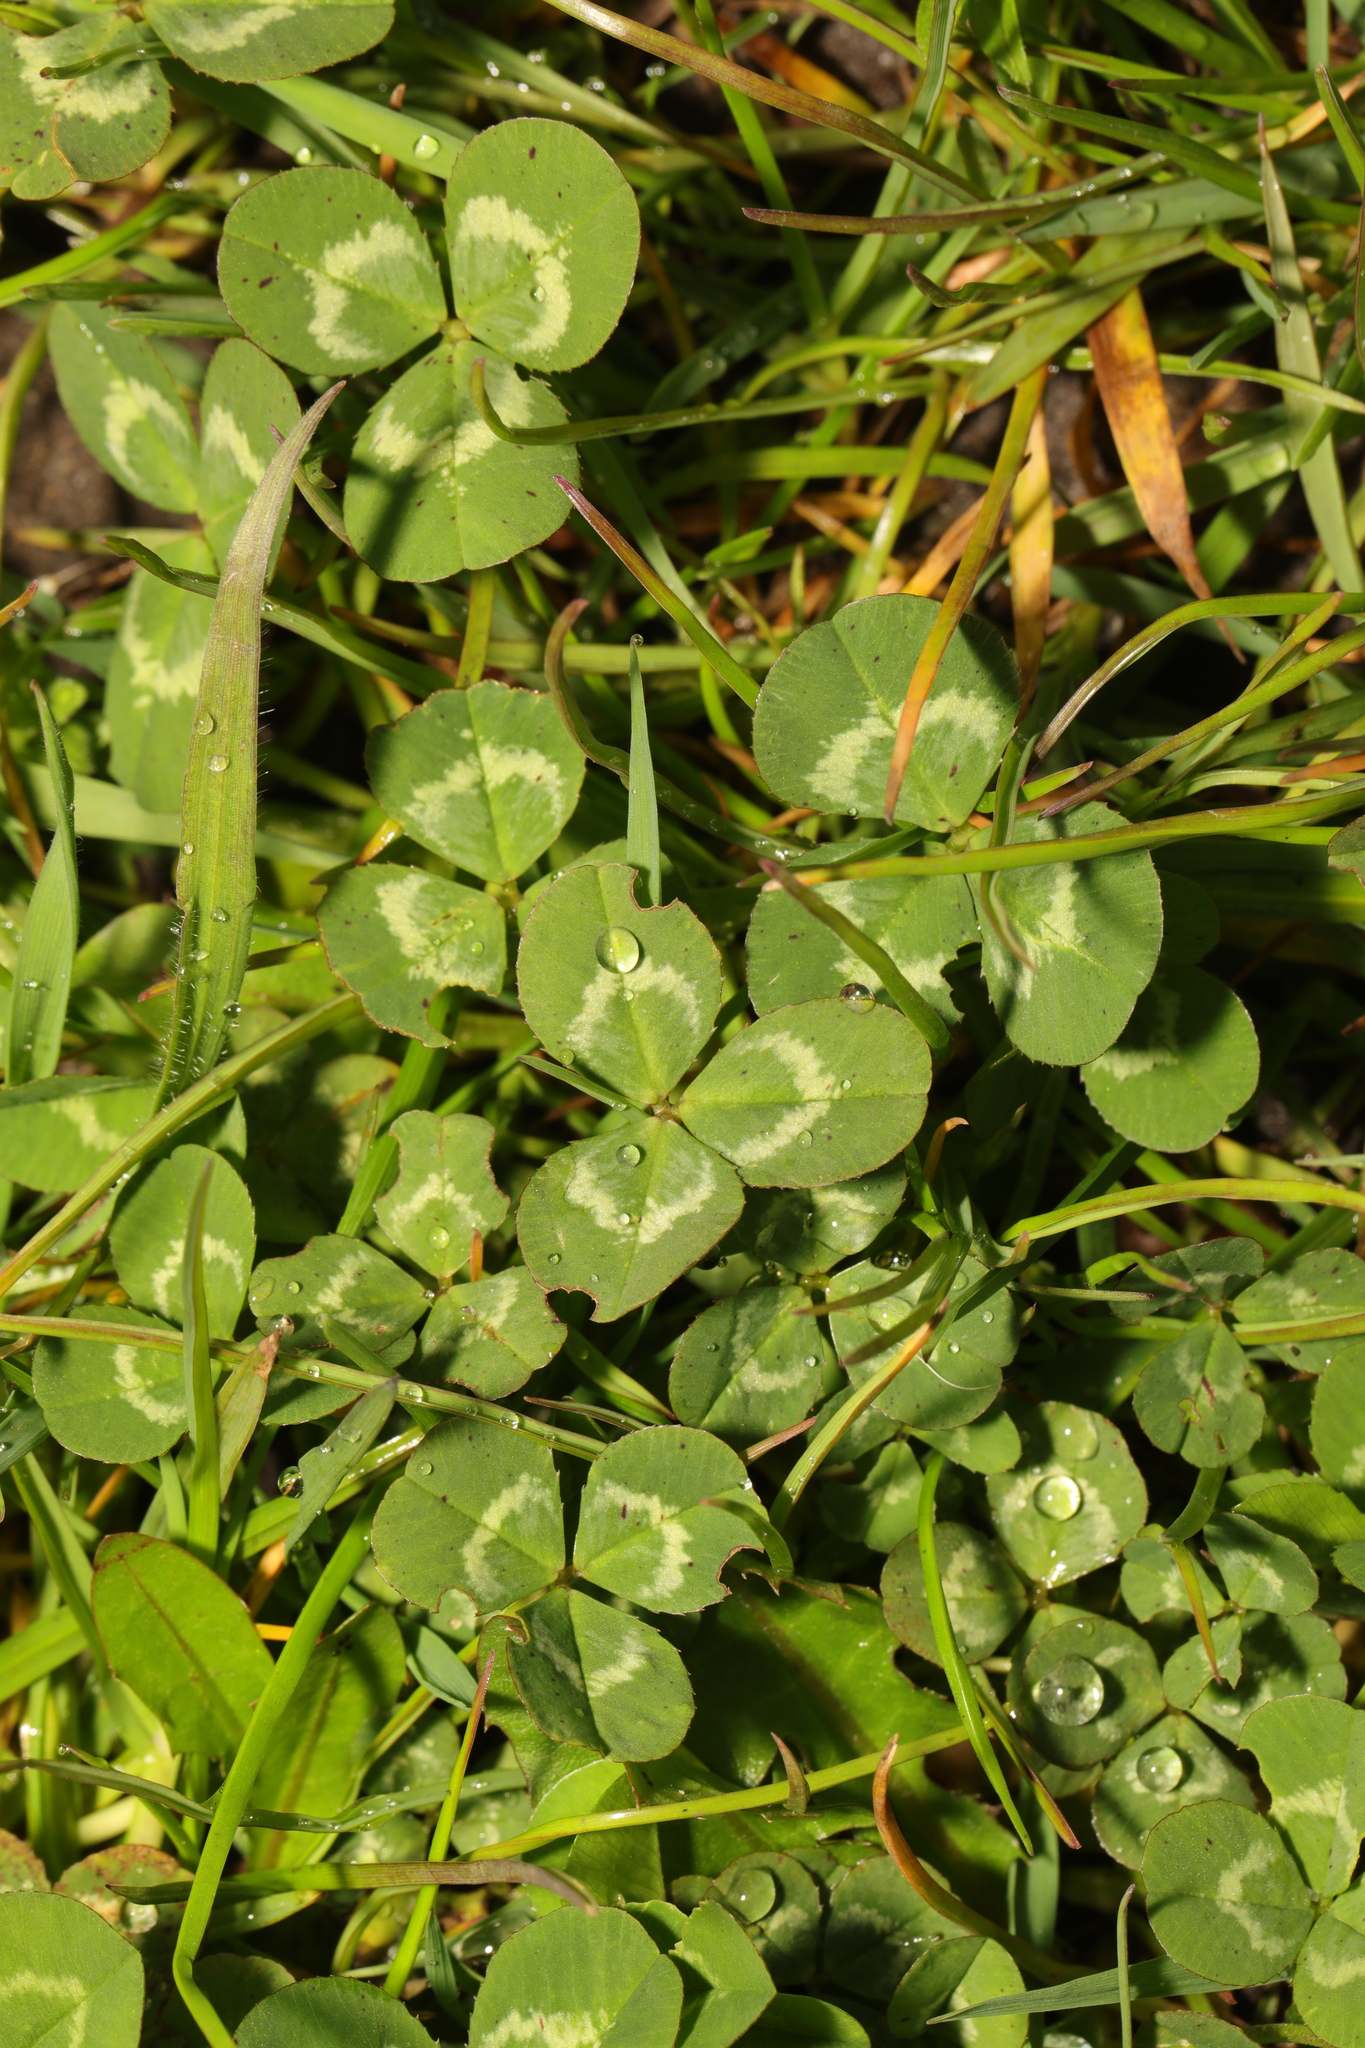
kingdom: Plantae
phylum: Tracheophyta
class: Magnoliopsida
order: Fabales
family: Fabaceae
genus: Trifolium
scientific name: Trifolium repens
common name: White clover
